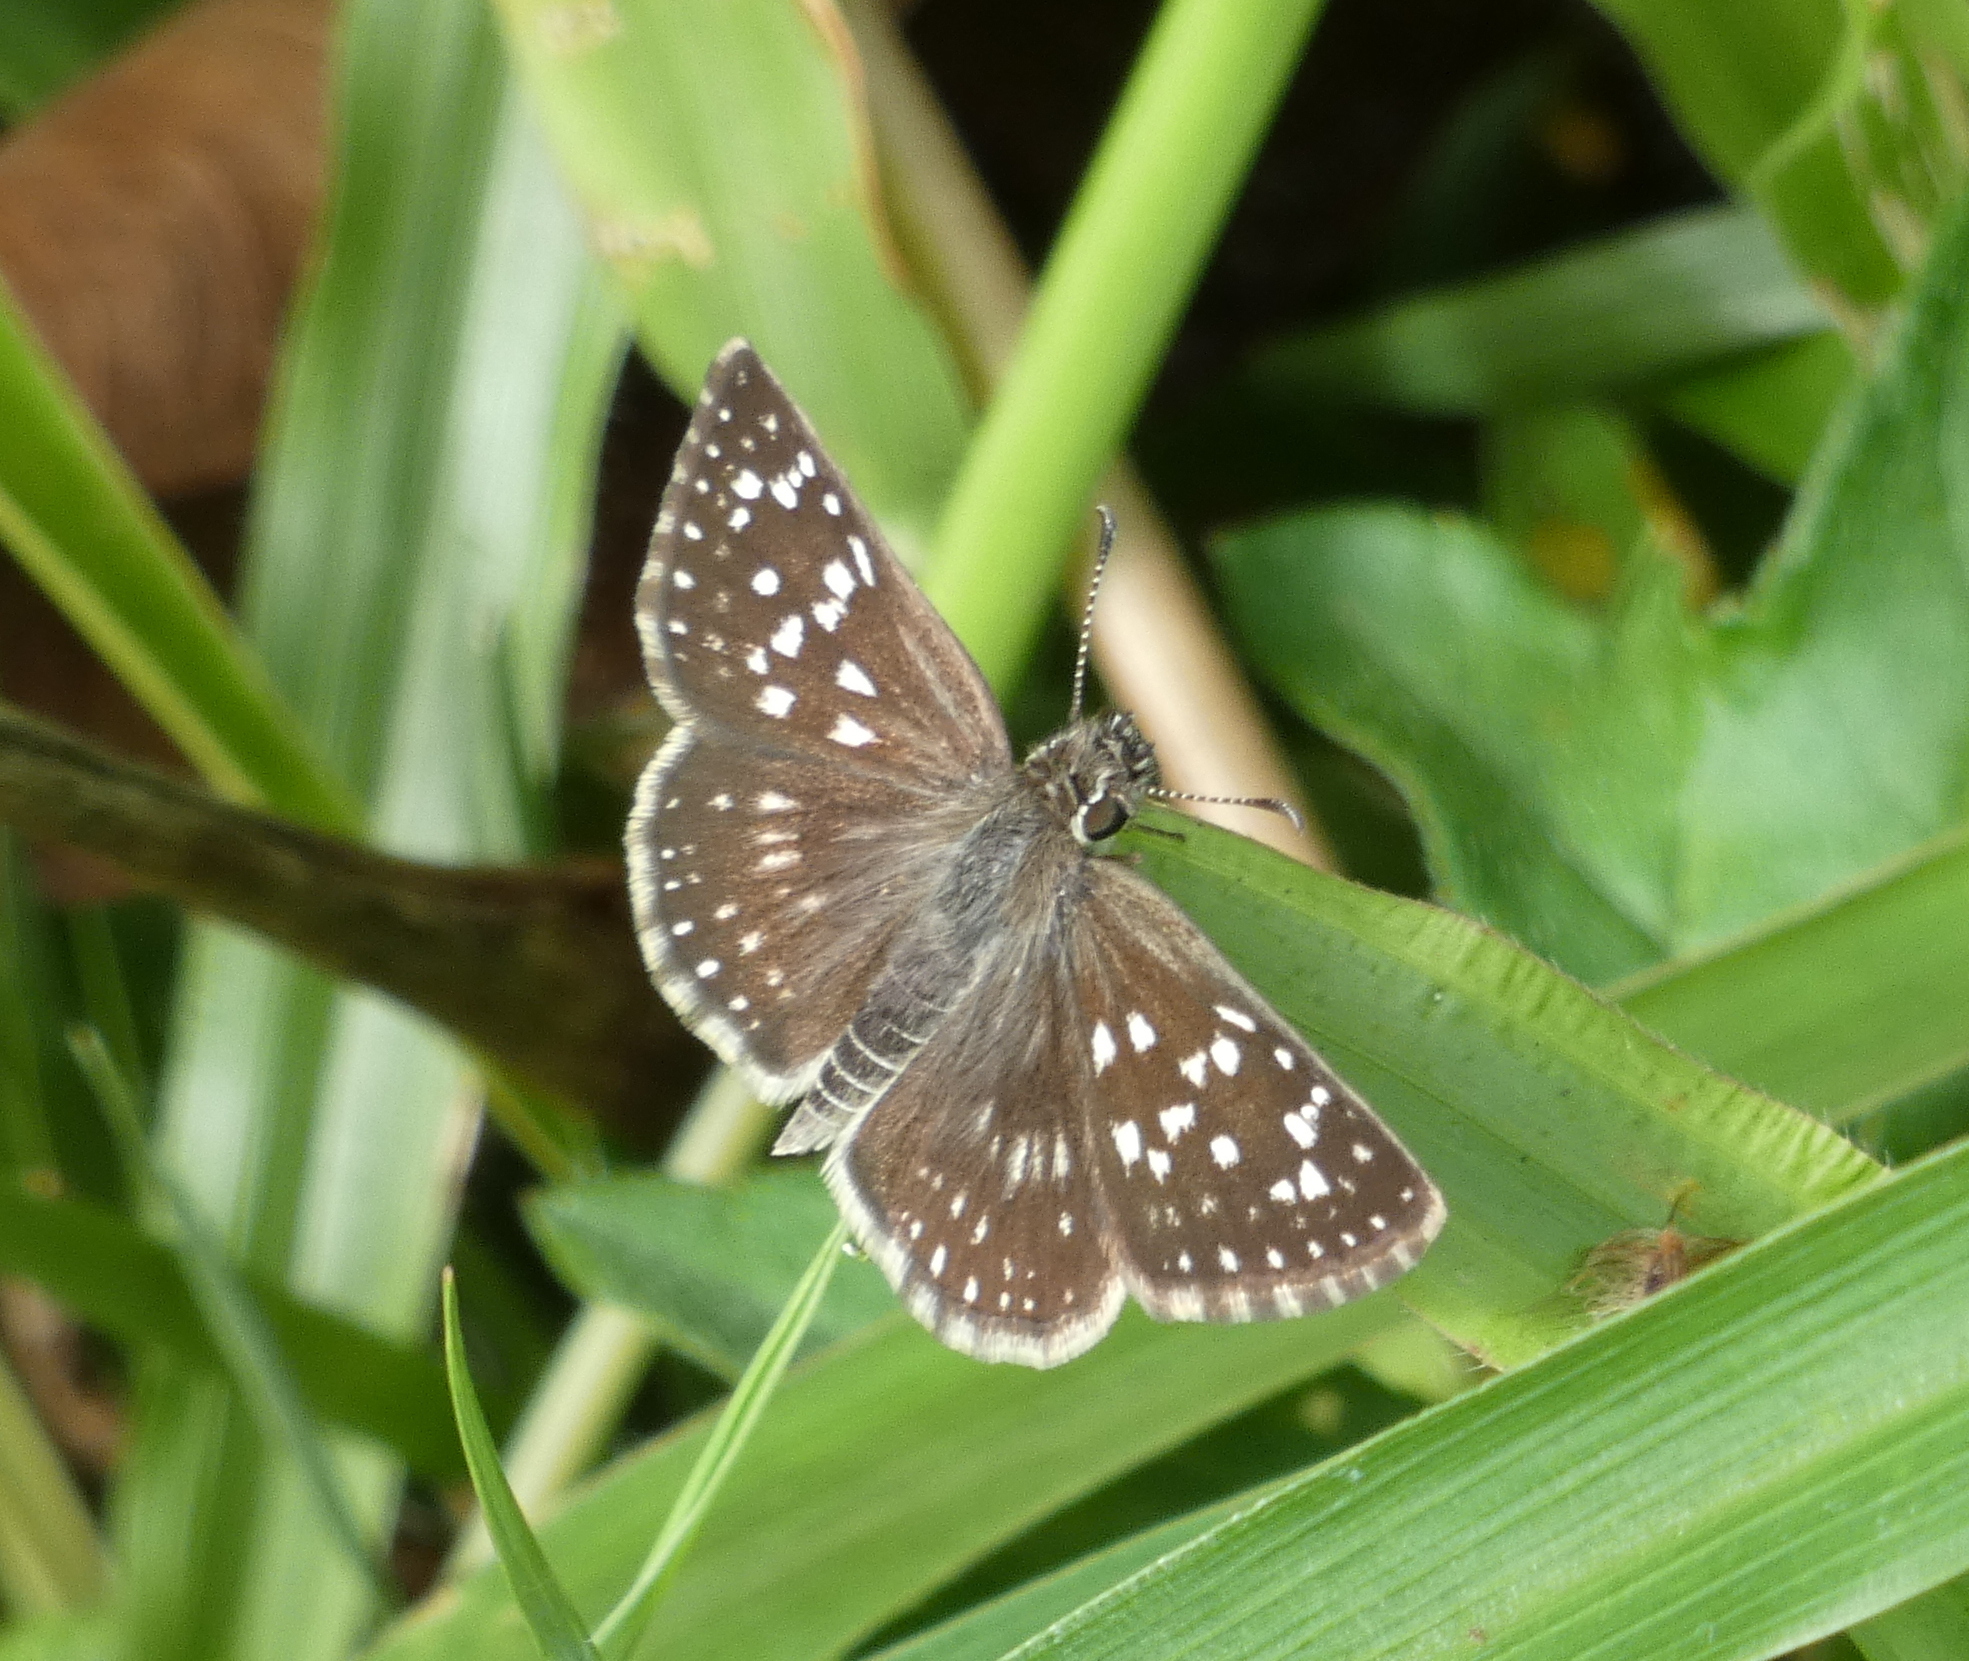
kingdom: Animalia
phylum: Arthropoda
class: Insecta
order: Lepidoptera
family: Hesperiidae
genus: Chirgus
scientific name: Chirgus
